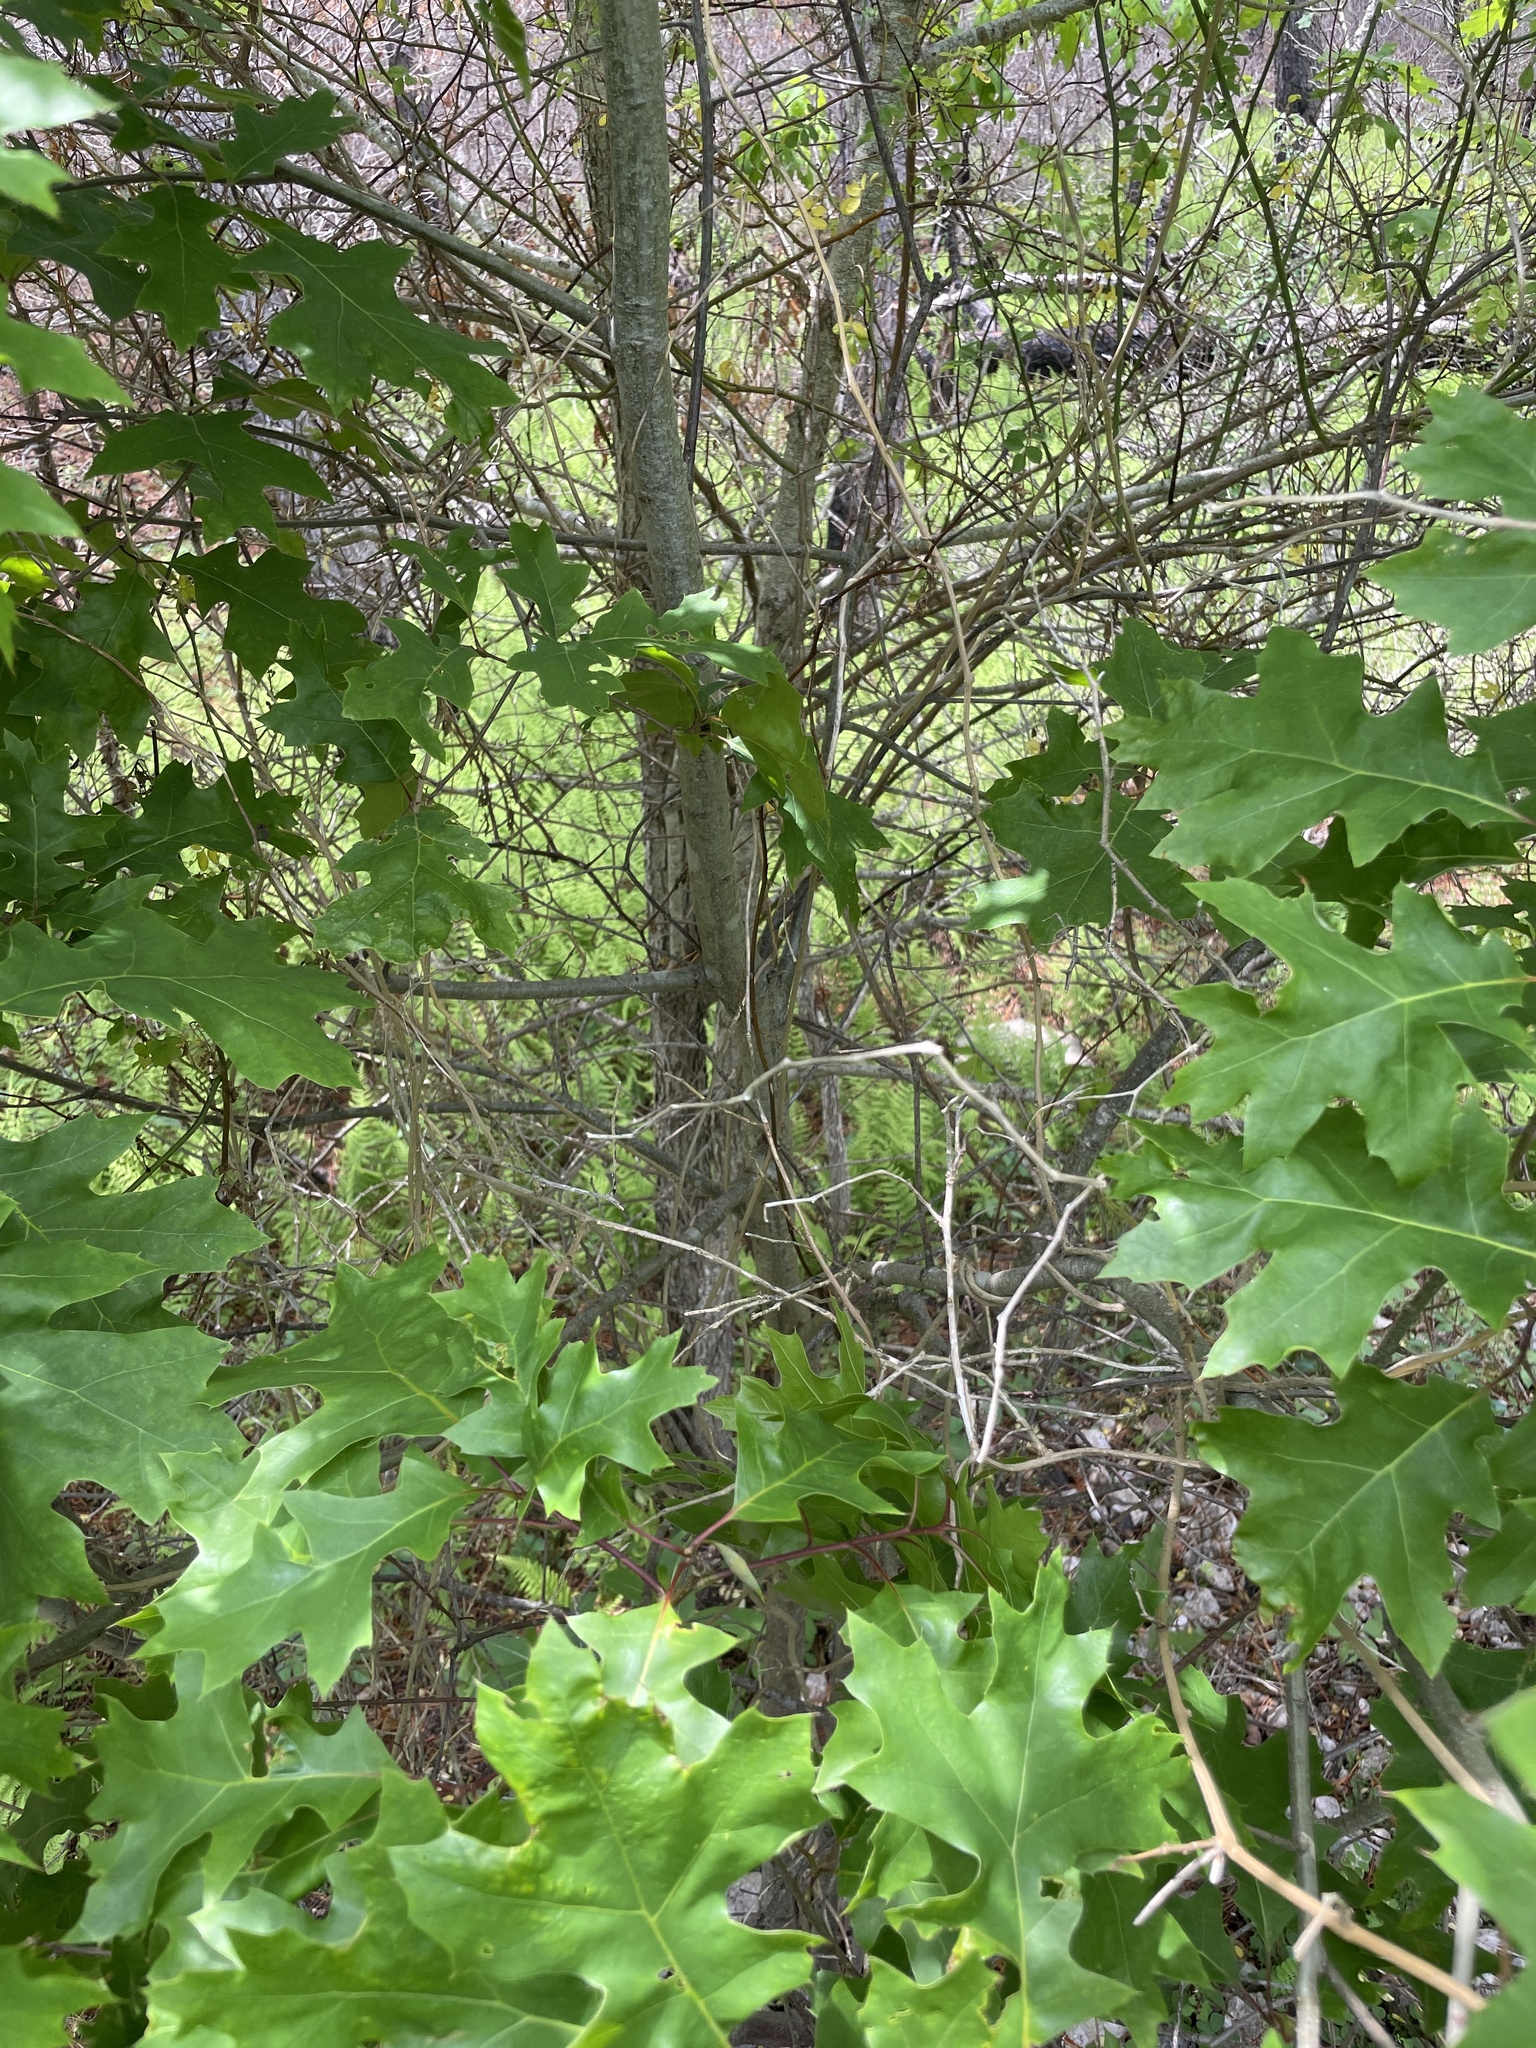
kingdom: Plantae
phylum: Tracheophyta
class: Magnoliopsida
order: Fagales
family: Fagaceae
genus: Quercus
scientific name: Quercus coccinea
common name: Scarlet oak
